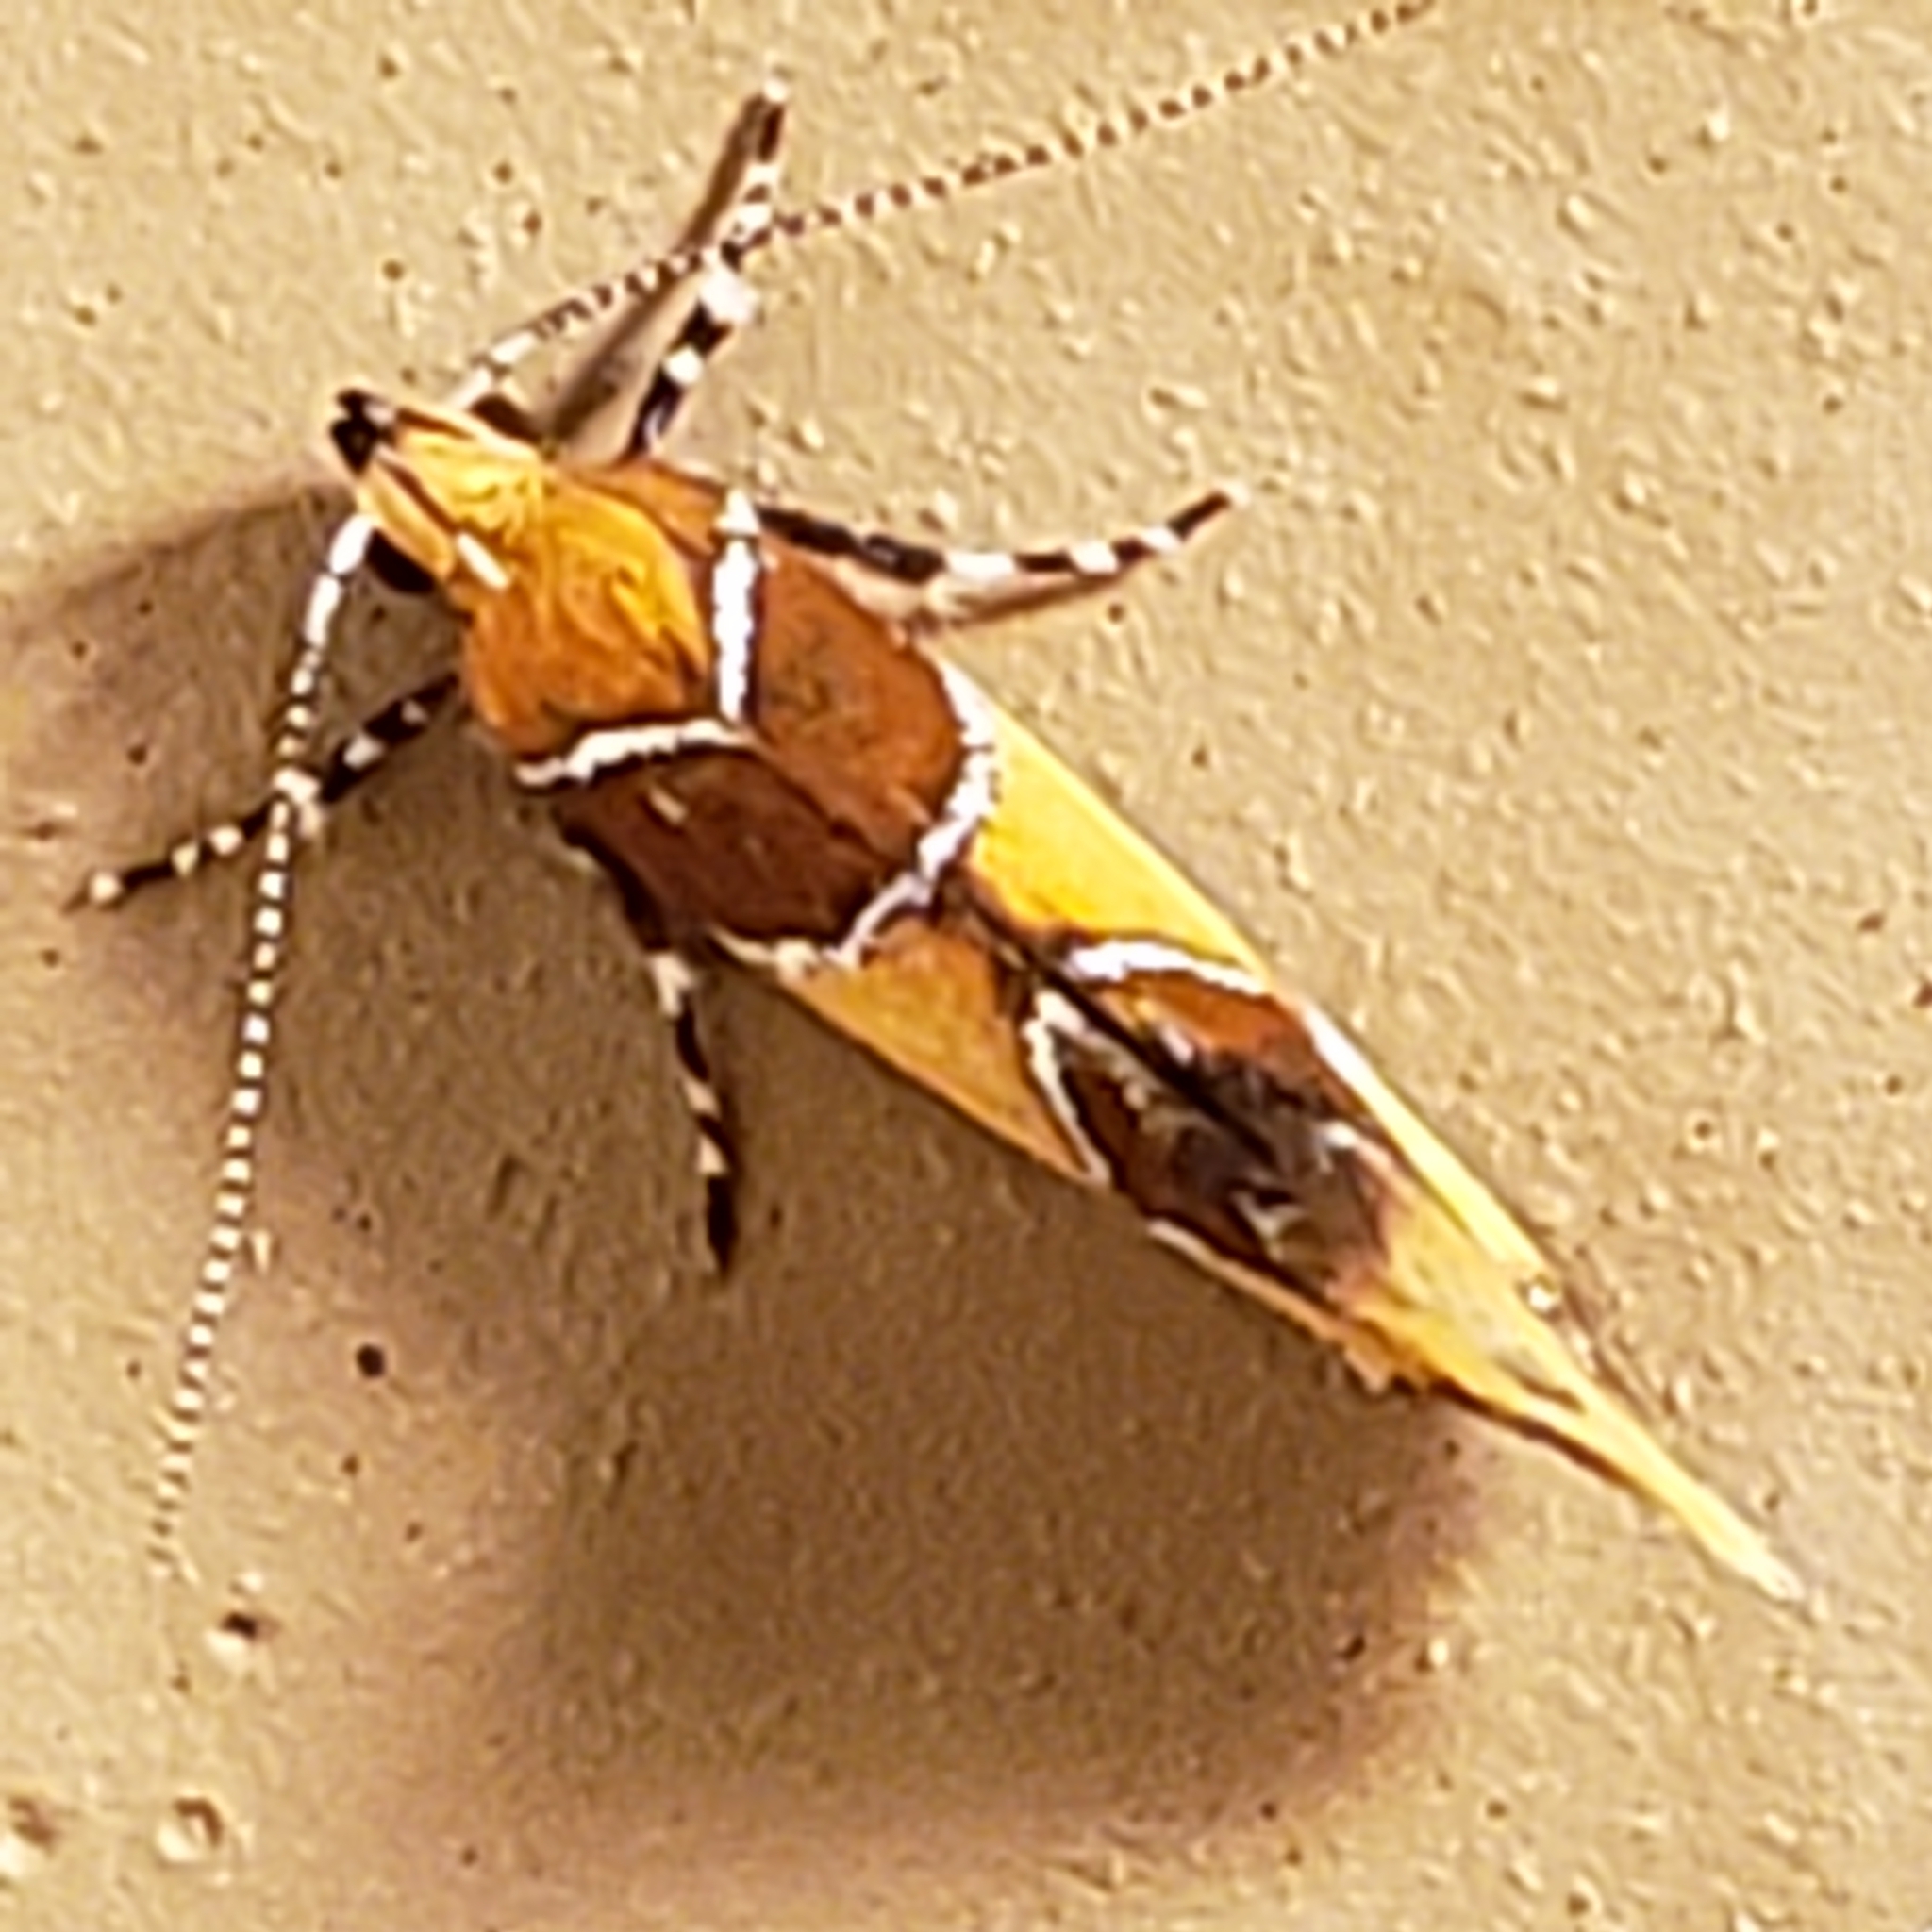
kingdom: Animalia
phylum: Arthropoda
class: Insecta
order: Lepidoptera
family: Oecophoridae
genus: Callima
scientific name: Callima argenticinctella
